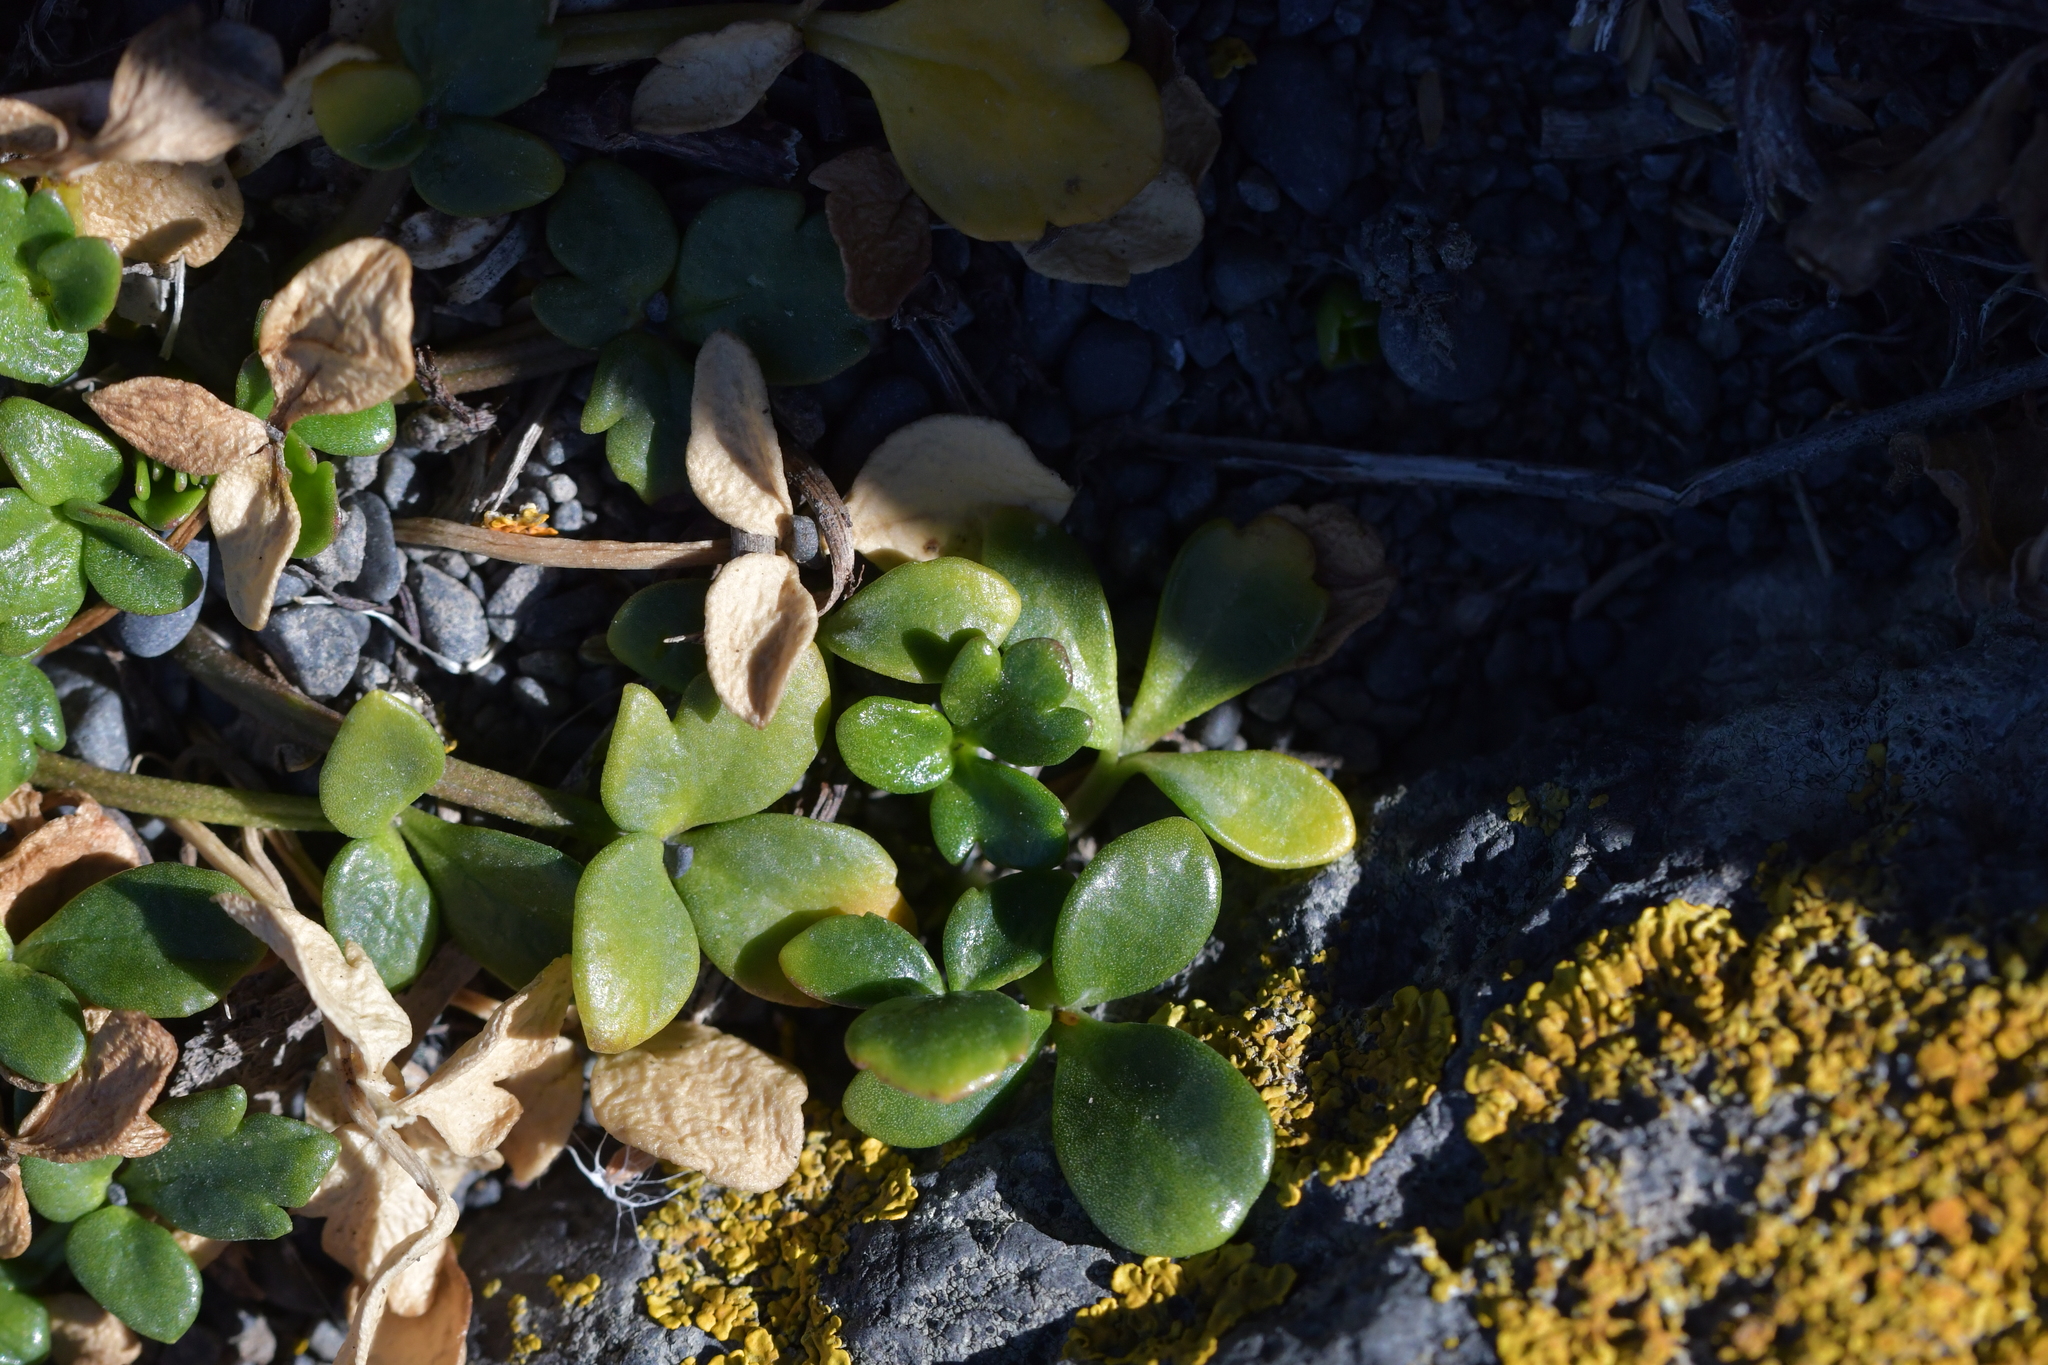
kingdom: Plantae
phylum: Tracheophyta
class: Magnoliopsida
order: Ranunculales
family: Ranunculaceae
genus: Ranunculus
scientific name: Ranunculus acaulis
